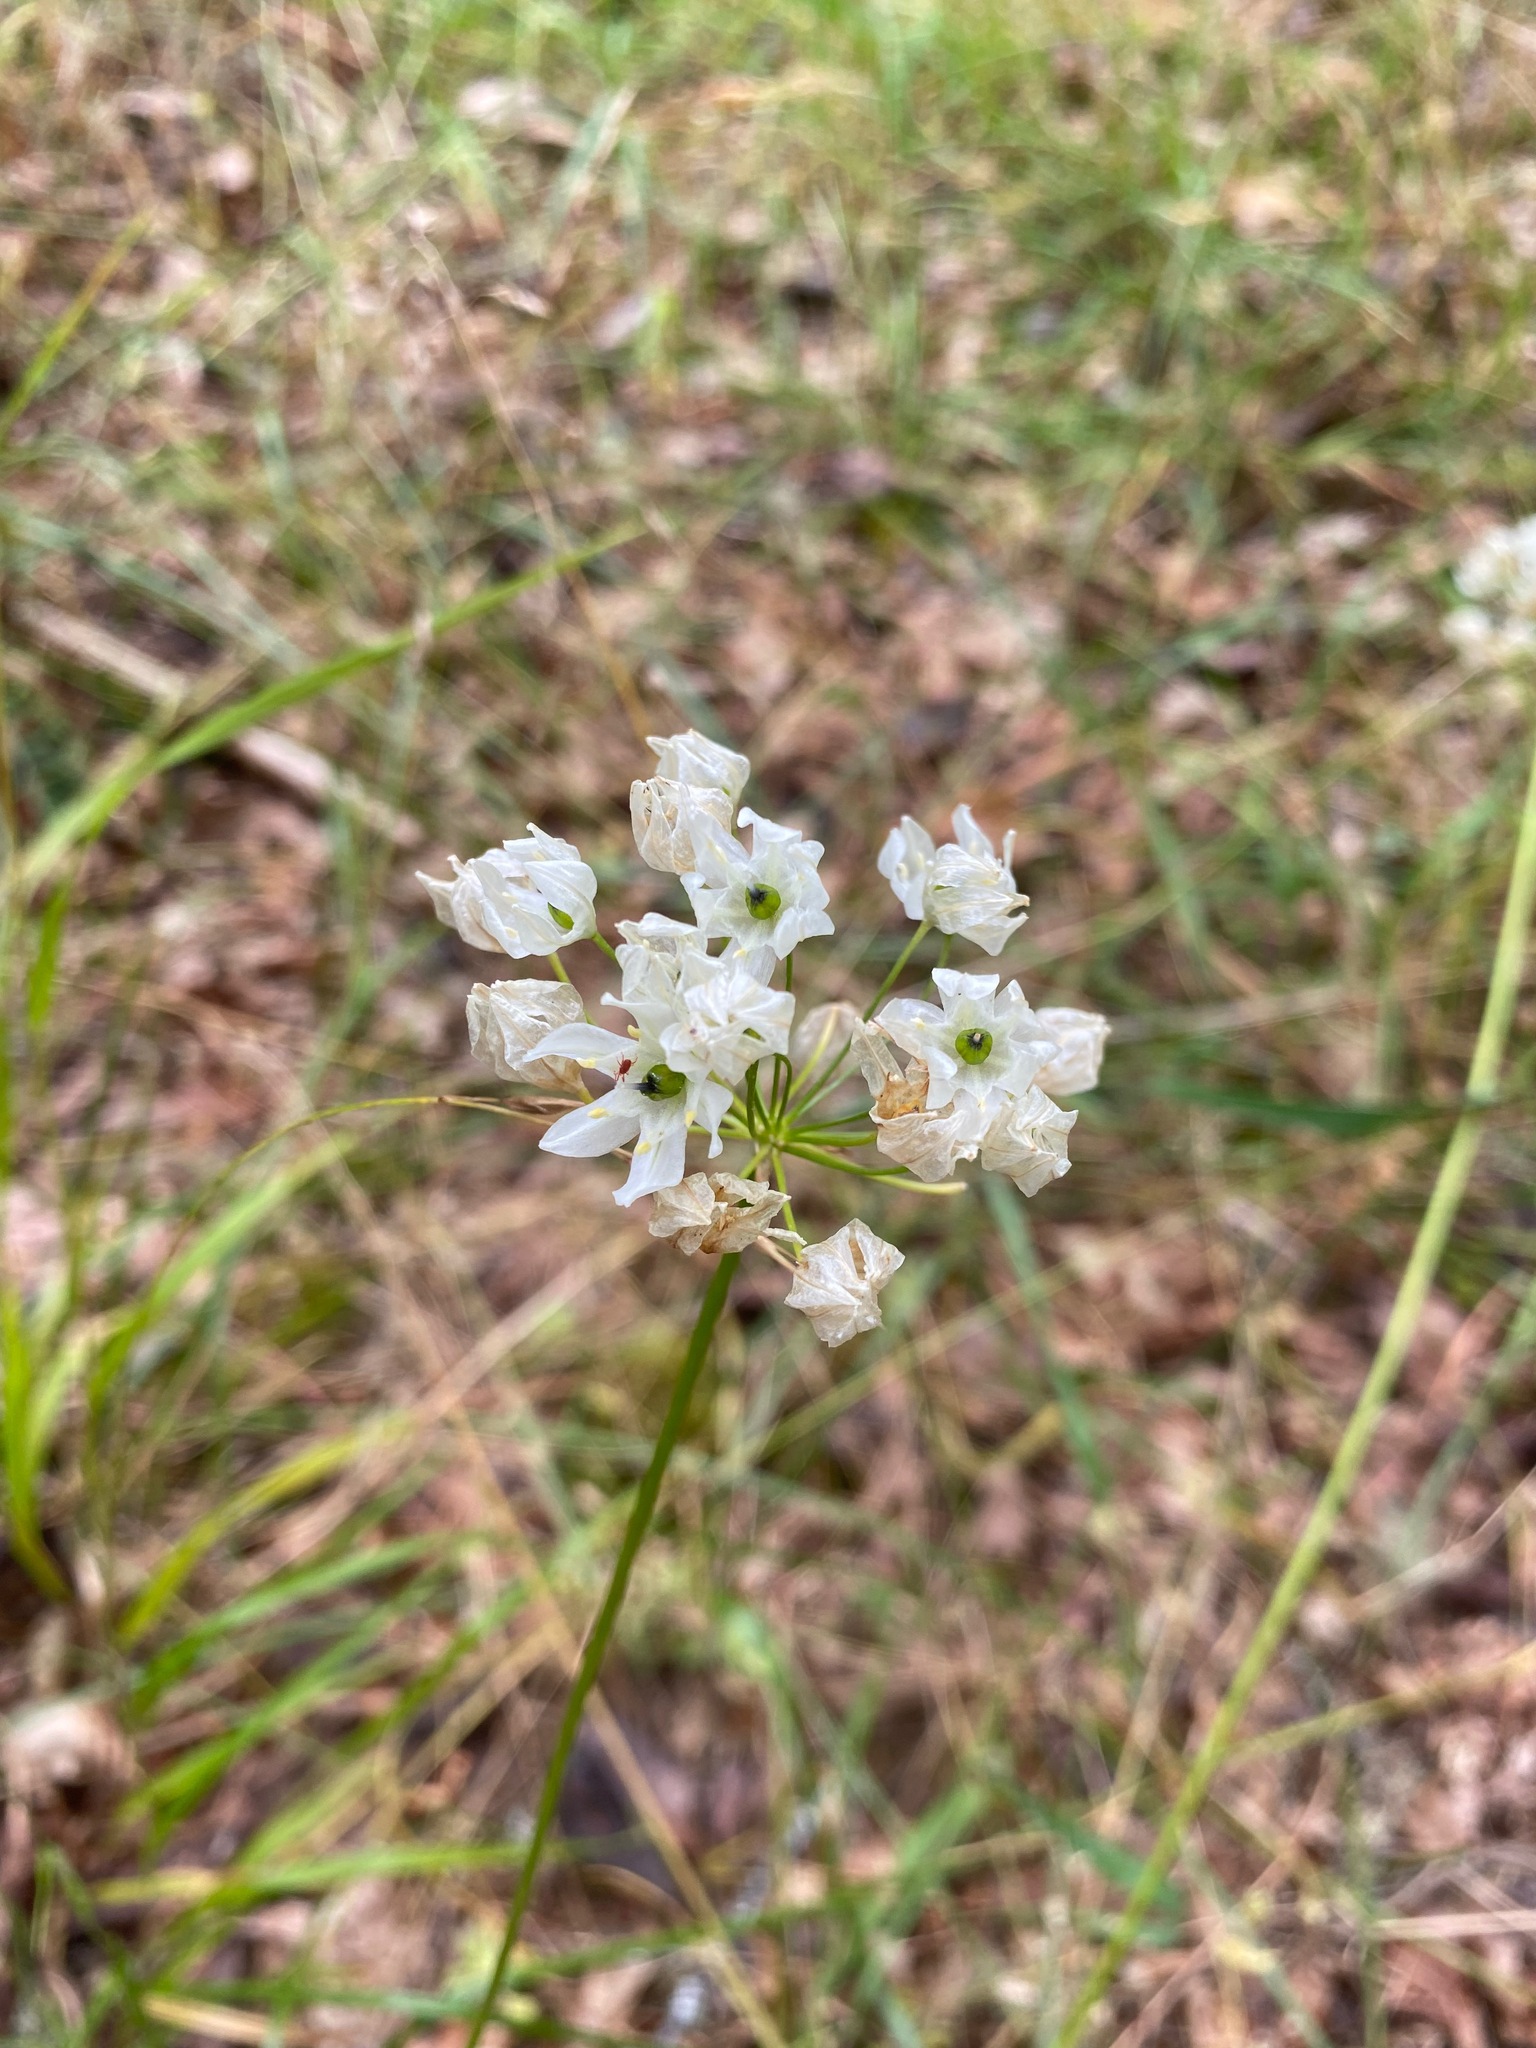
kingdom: Plantae
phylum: Tracheophyta
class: Liliopsida
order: Asparagales
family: Asparagaceae
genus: Triteleia
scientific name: Triteleia hyacinthina
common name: White brodiaea
